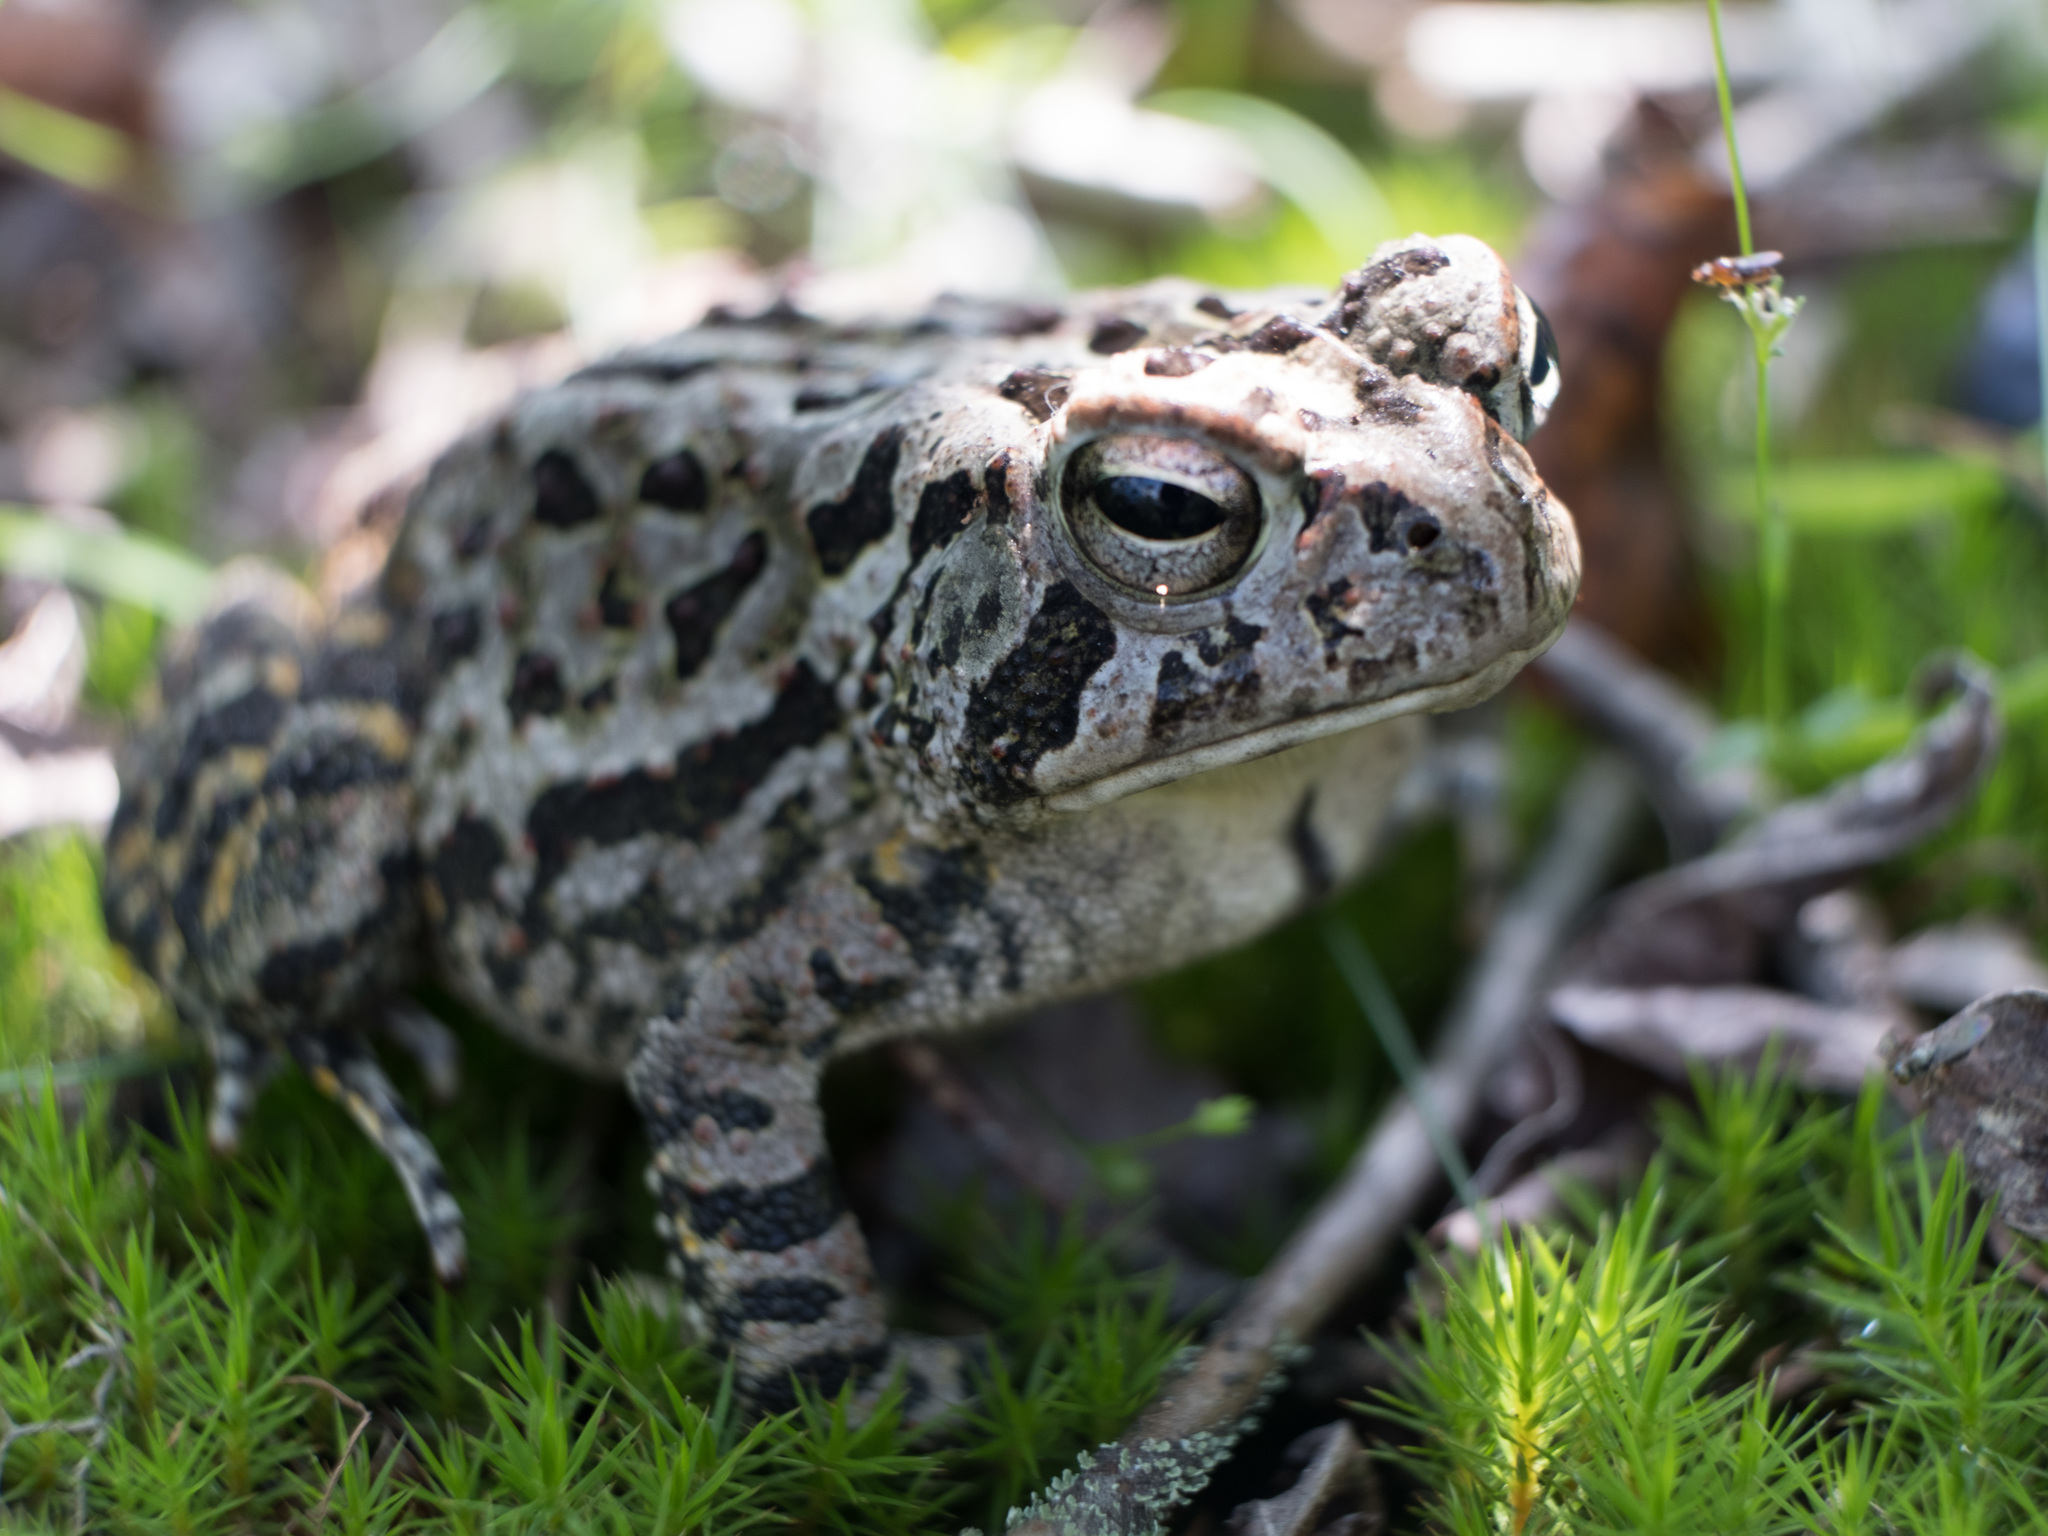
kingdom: Animalia
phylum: Chordata
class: Amphibia
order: Anura
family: Bufonidae
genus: Anaxyrus
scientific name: Anaxyrus fowleri
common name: Fowler's toad
